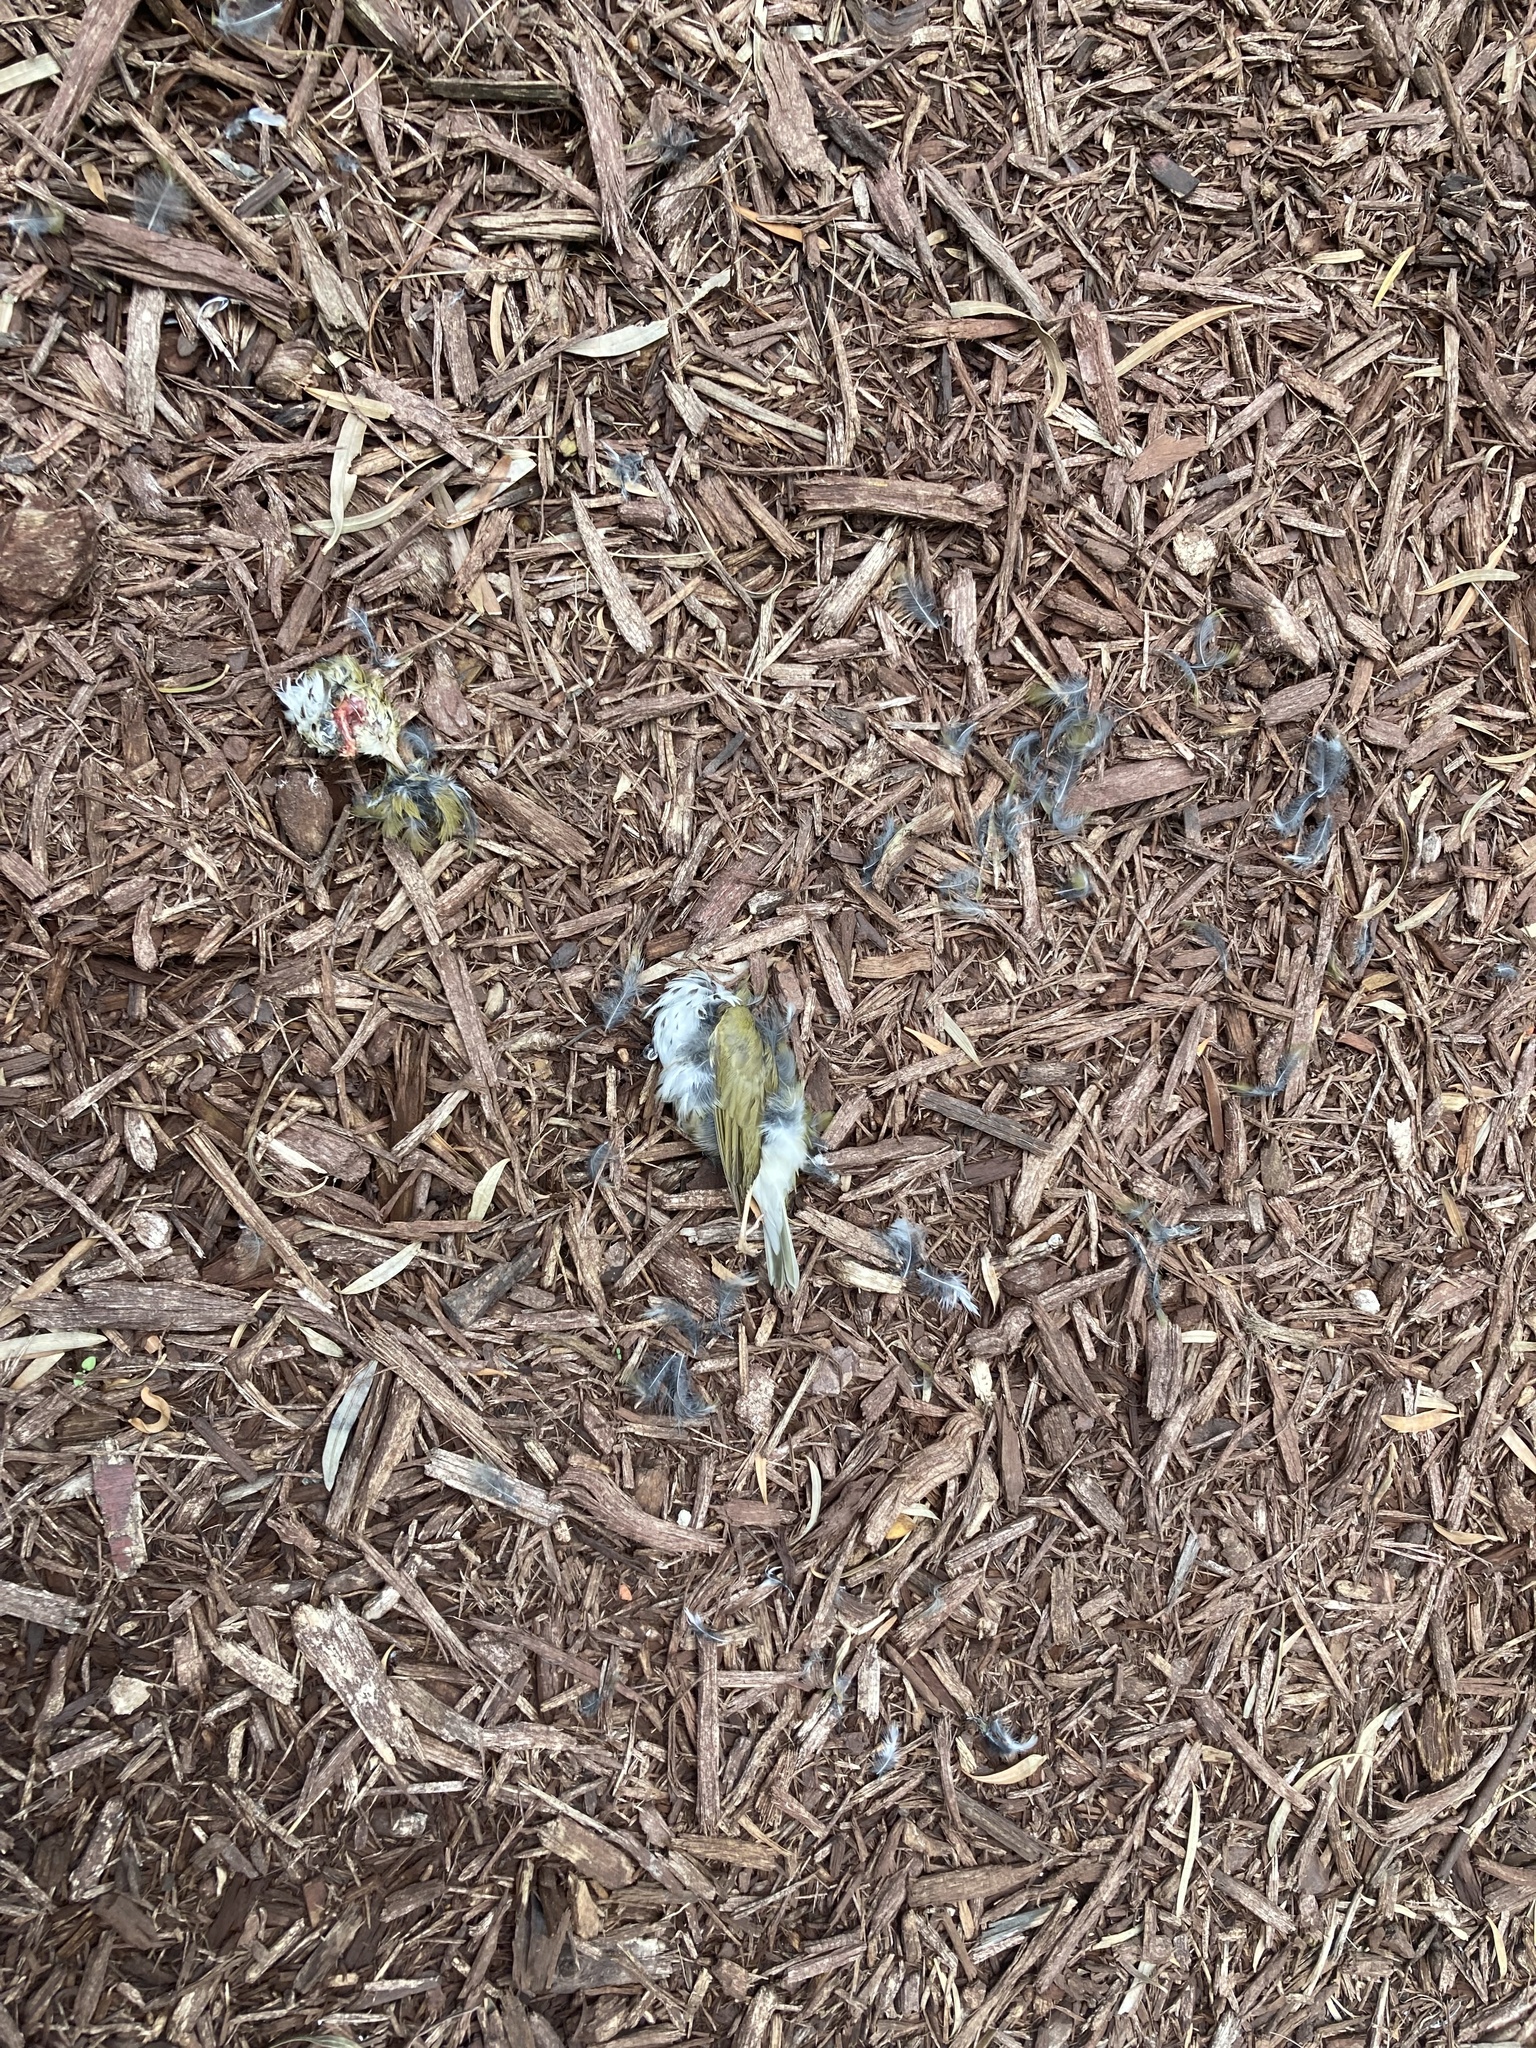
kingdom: Animalia
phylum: Chordata
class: Aves
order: Passeriformes
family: Parulidae
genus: Seiurus
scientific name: Seiurus aurocapilla
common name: Ovenbird
